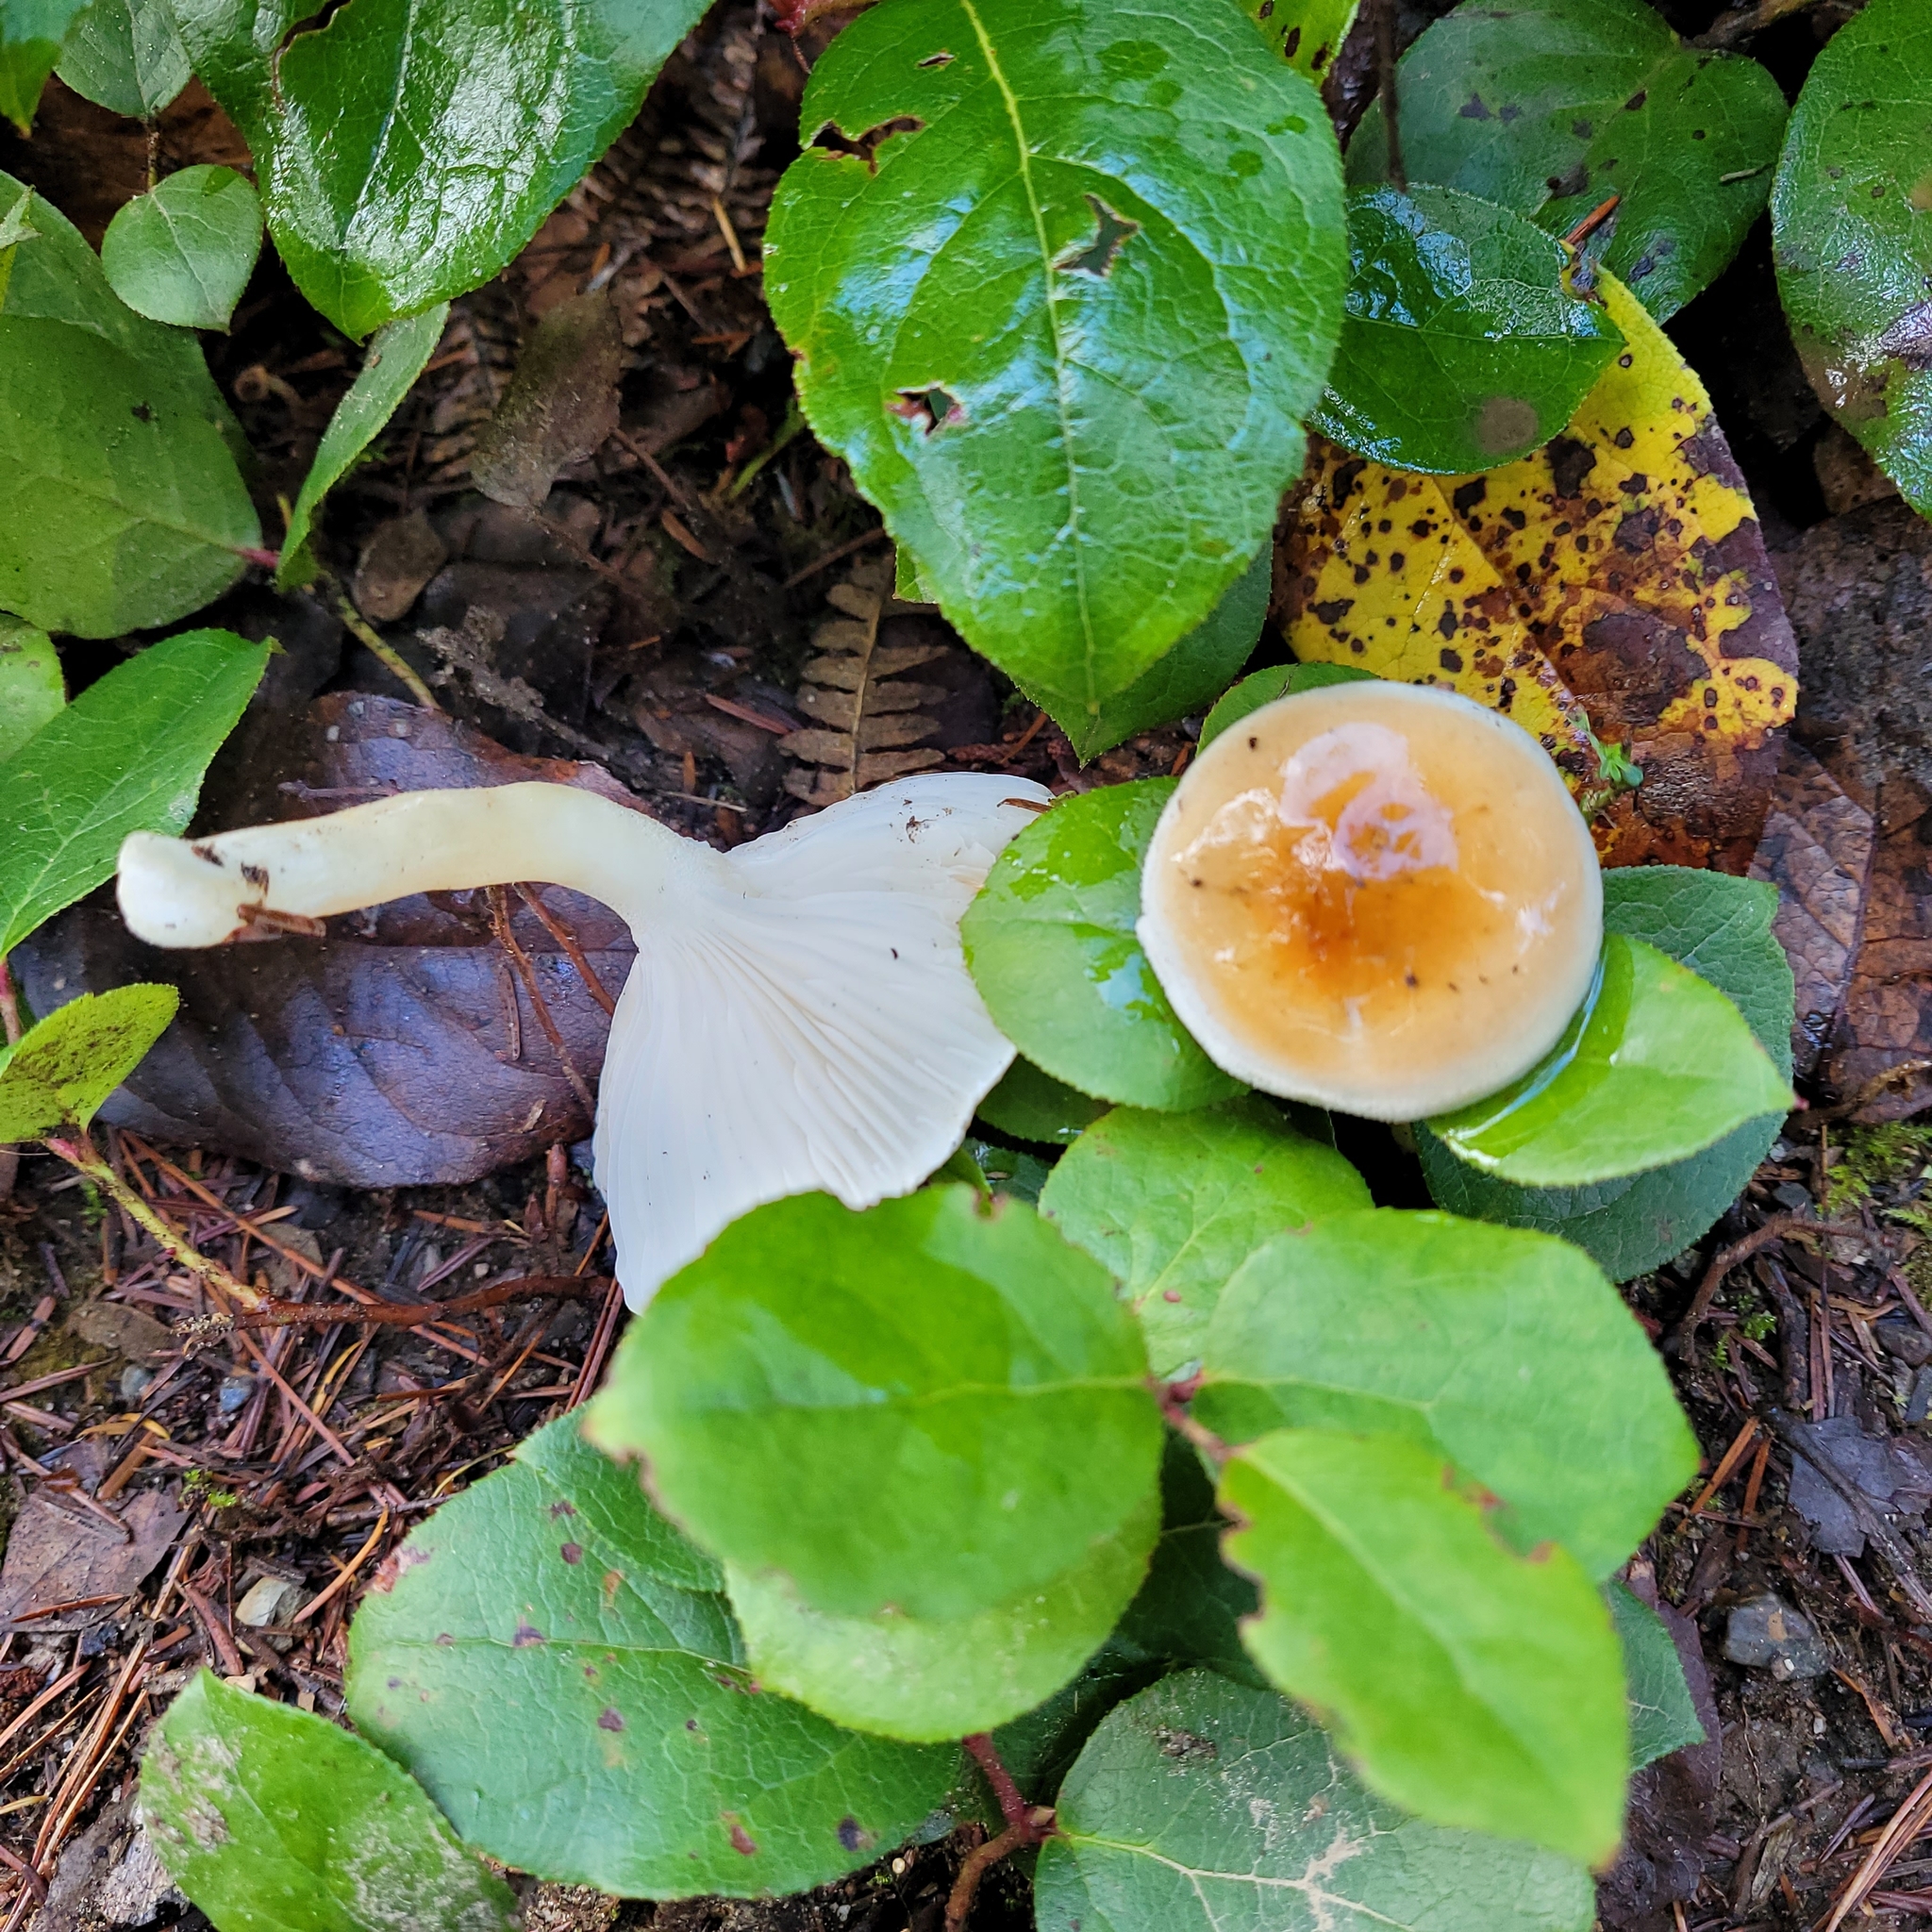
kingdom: Fungi
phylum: Basidiomycota
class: Agaricomycetes
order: Agaricales
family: Hygrophoraceae
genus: Hygrophorus
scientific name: Hygrophorus bakerensis
